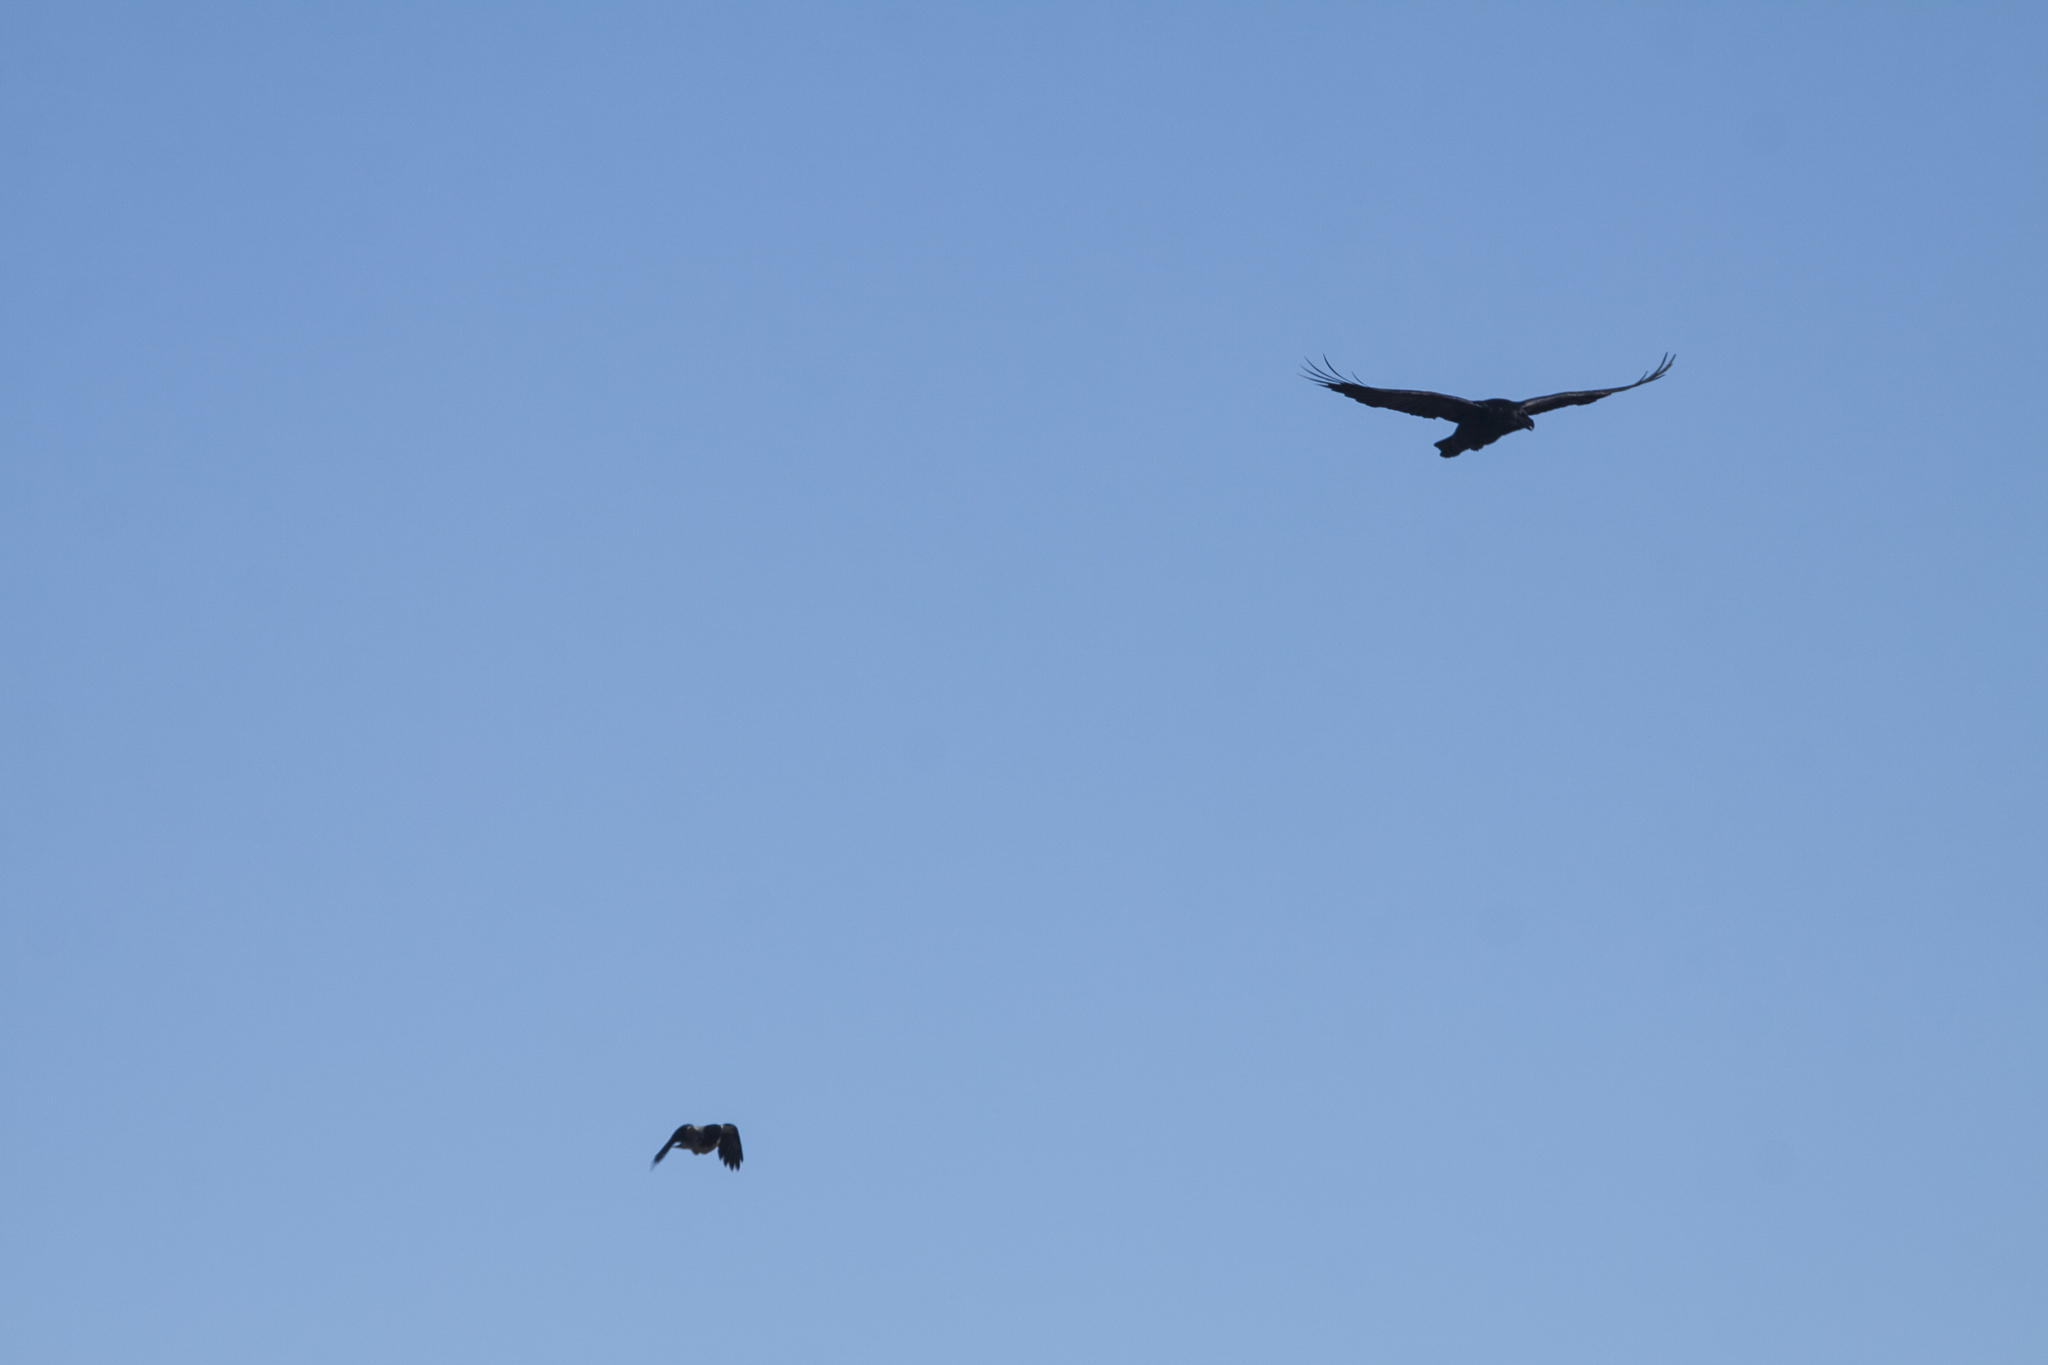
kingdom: Animalia
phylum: Chordata
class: Aves
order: Passeriformes
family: Corvidae
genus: Corvus
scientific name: Corvus corax
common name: Common raven
